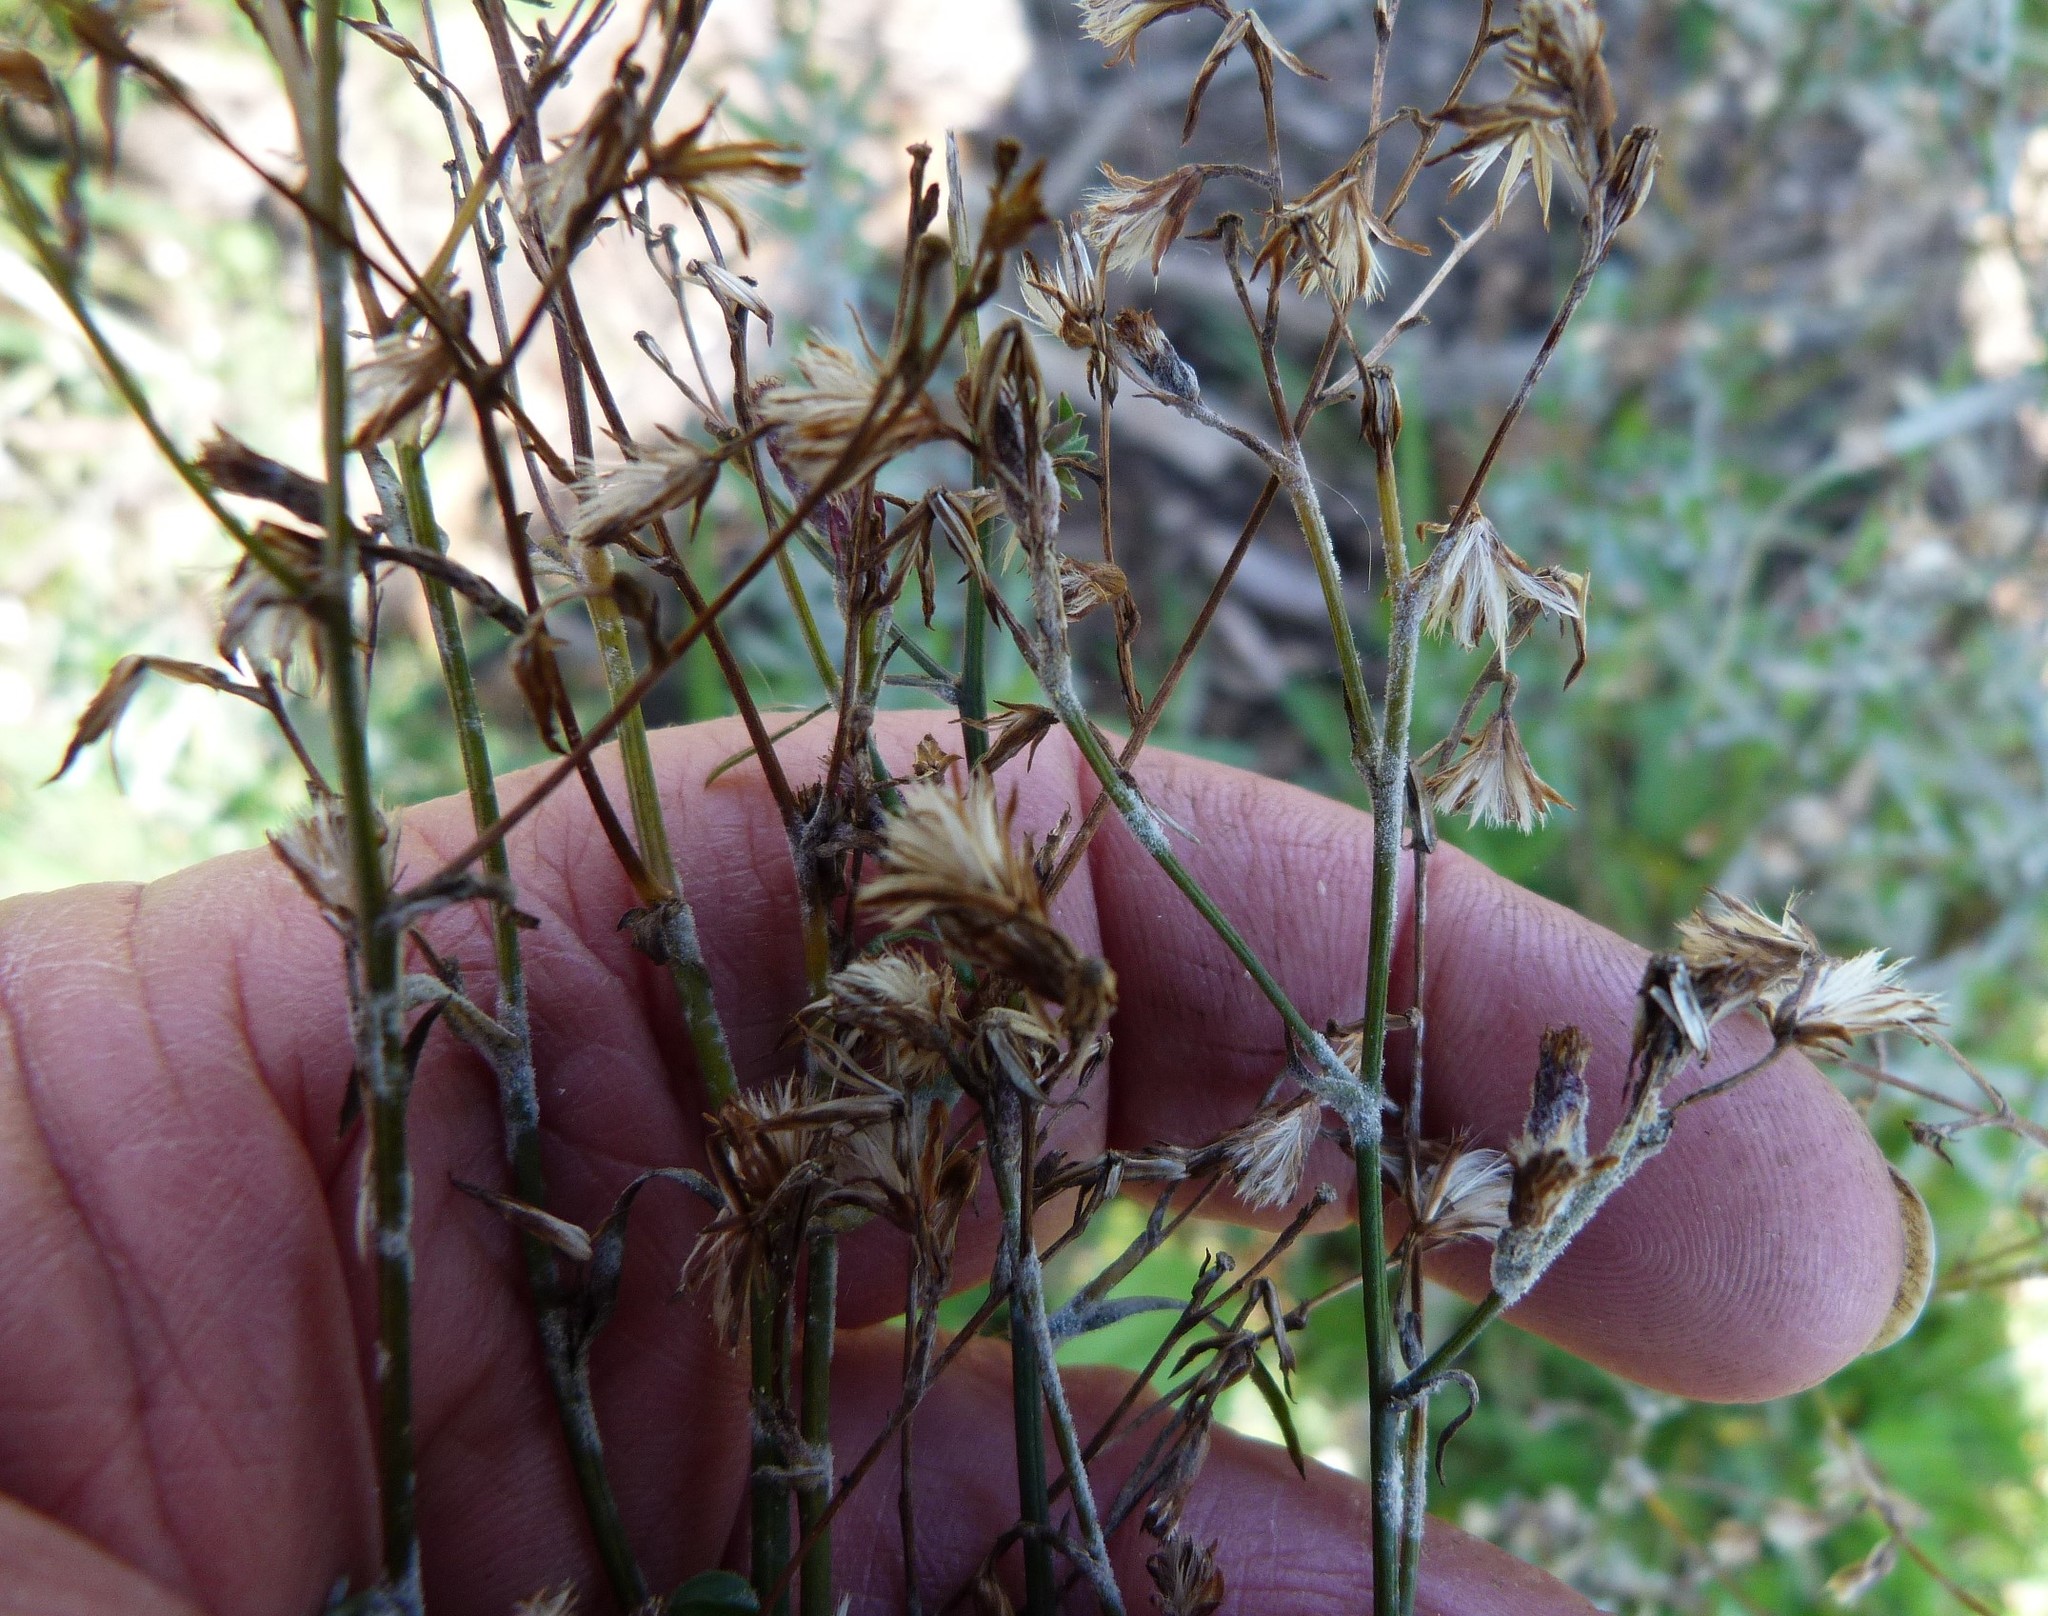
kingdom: Plantae
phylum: Tracheophyta
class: Magnoliopsida
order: Asterales
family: Asteraceae
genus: Symphyotrichum
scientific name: Symphyotrichum subulatum
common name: Annual saltmarsh aster
